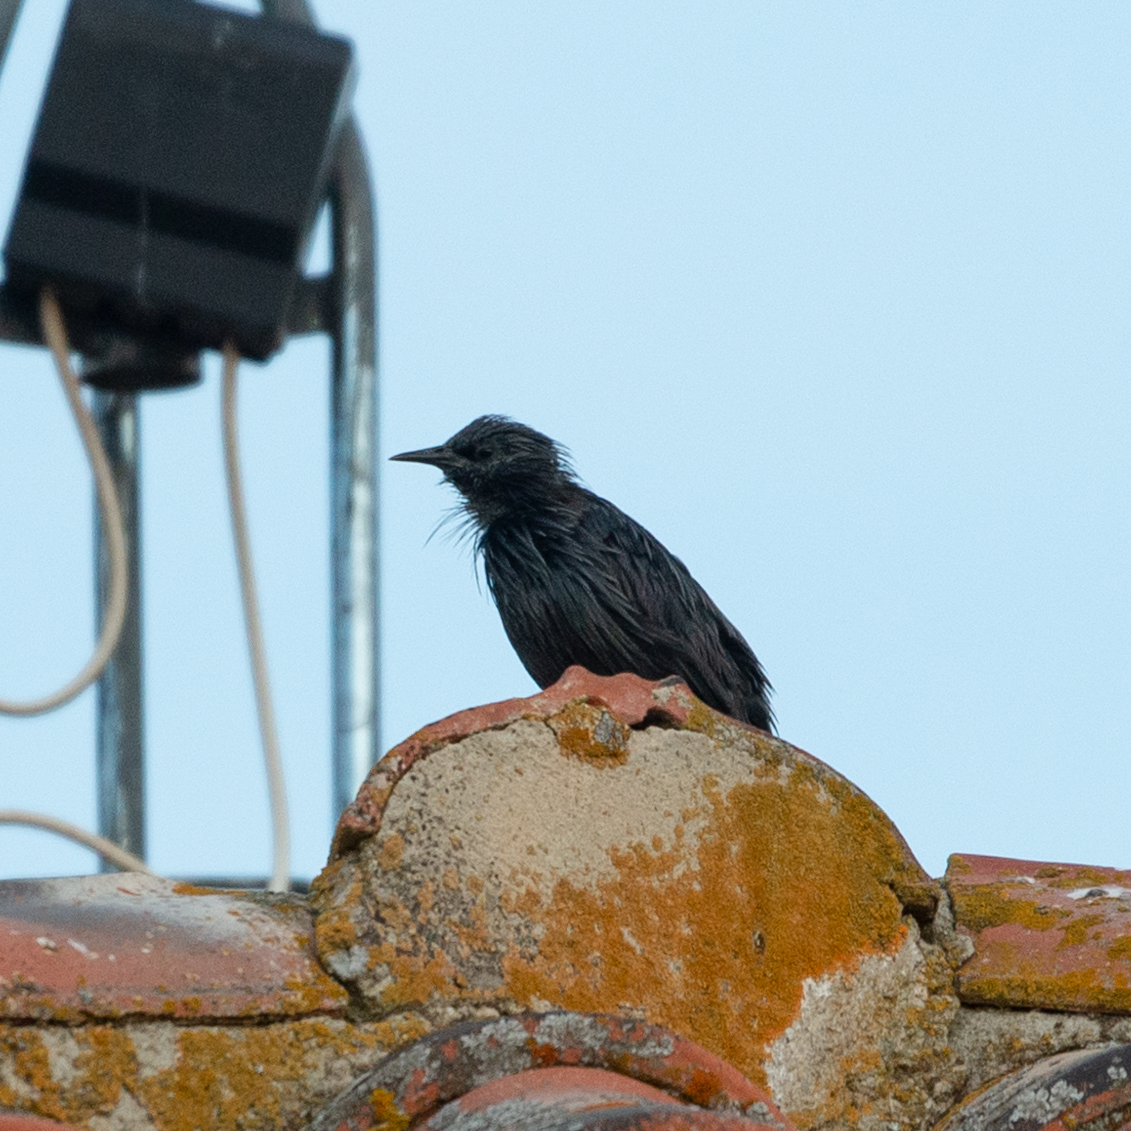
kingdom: Animalia
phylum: Chordata
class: Aves
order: Passeriformes
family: Sturnidae
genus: Sturnus
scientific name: Sturnus unicolor
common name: Spotless starling
